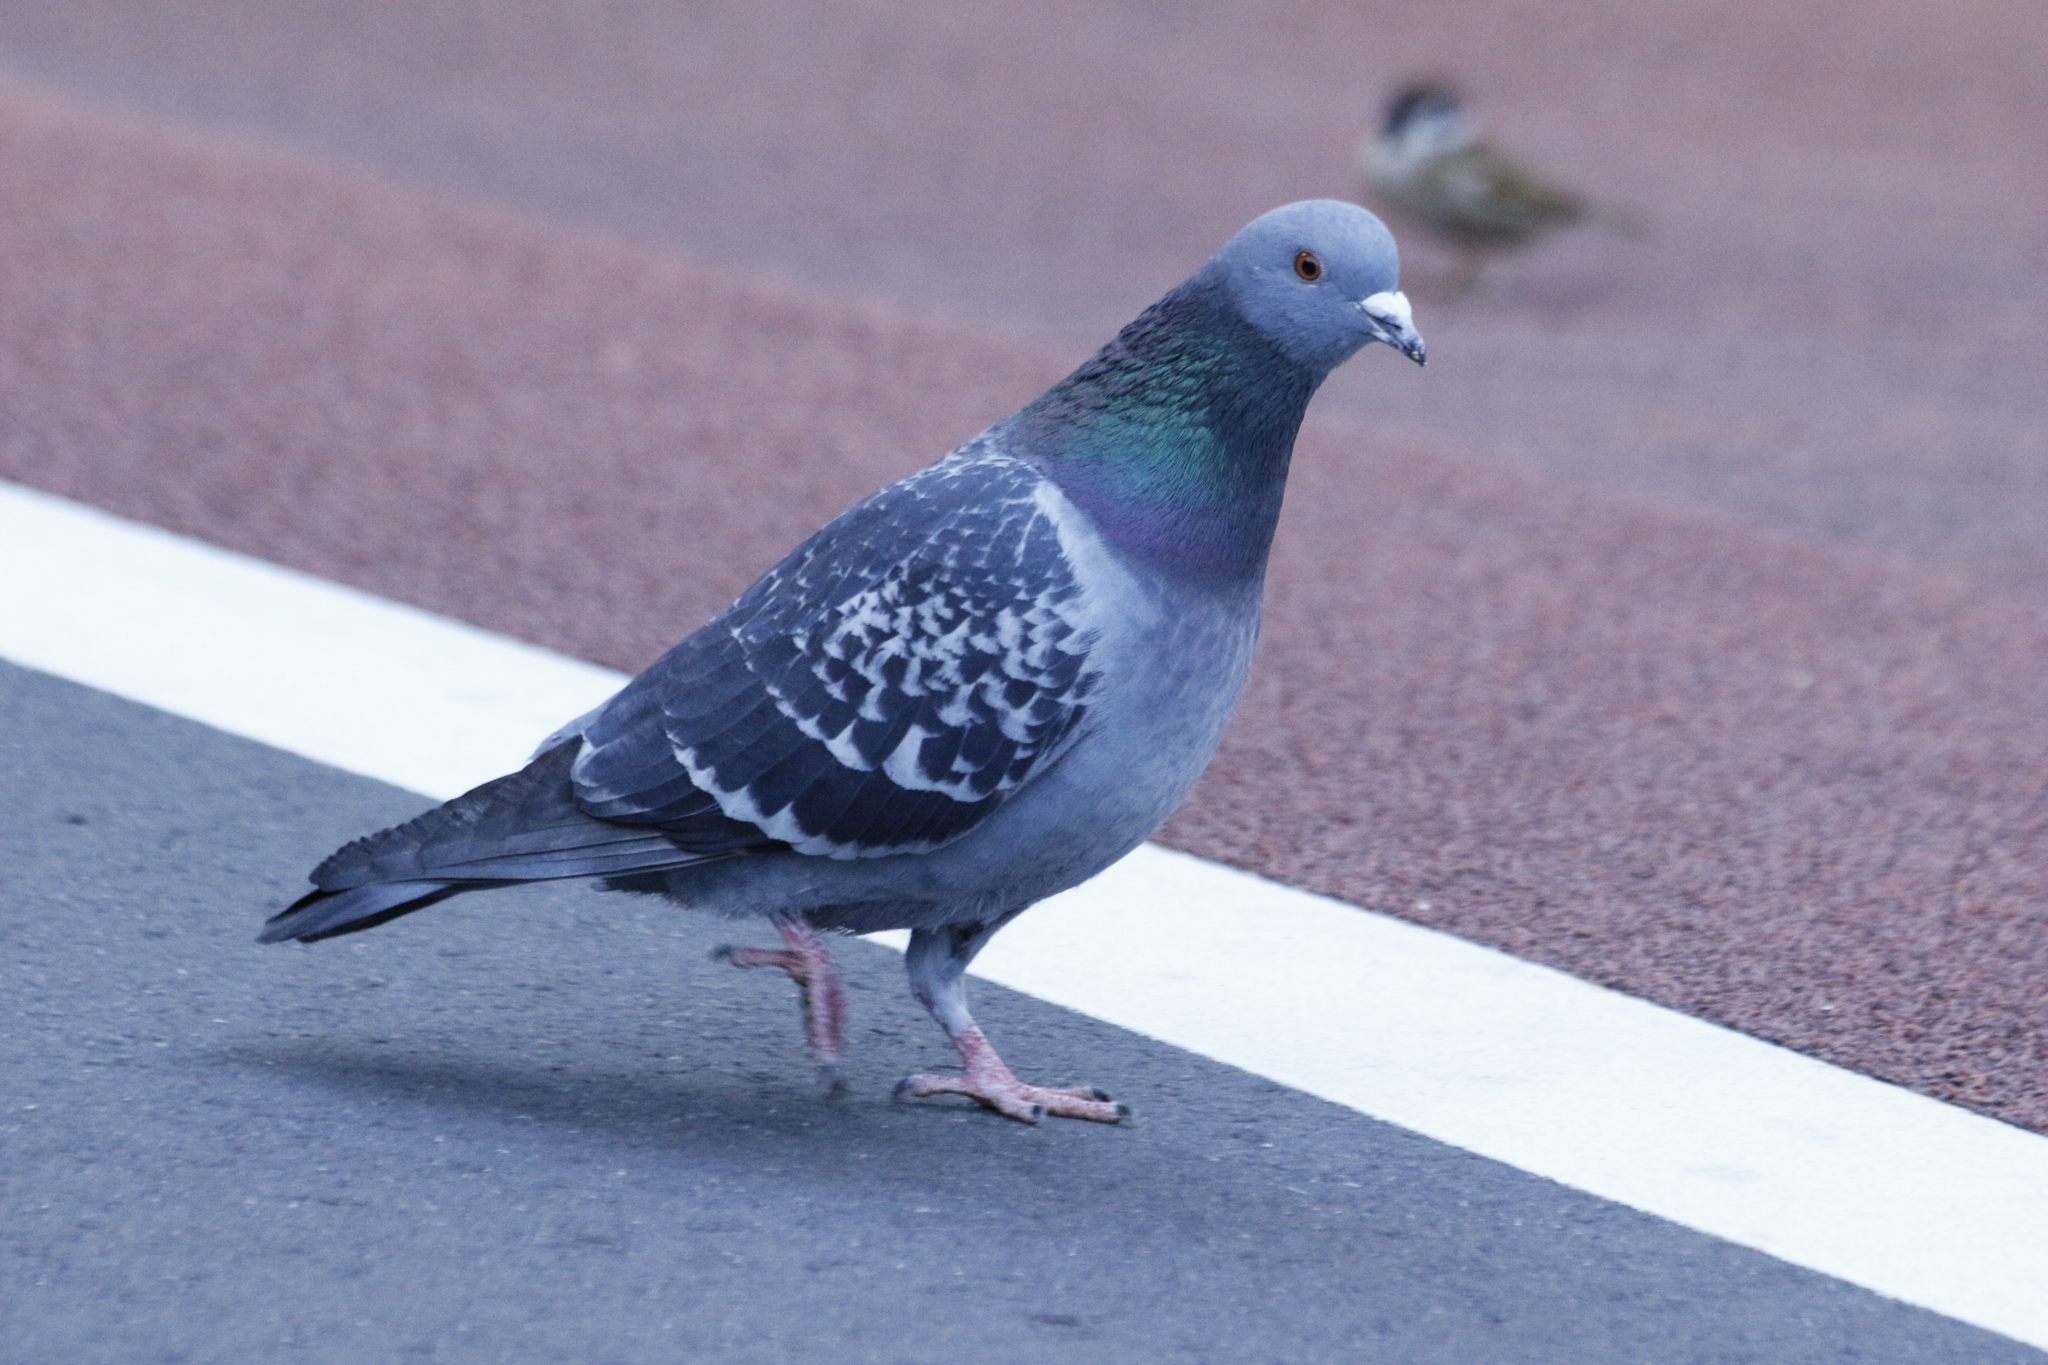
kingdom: Animalia
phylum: Chordata
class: Aves
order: Columbiformes
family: Columbidae
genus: Columba
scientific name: Columba livia
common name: Rock pigeon
